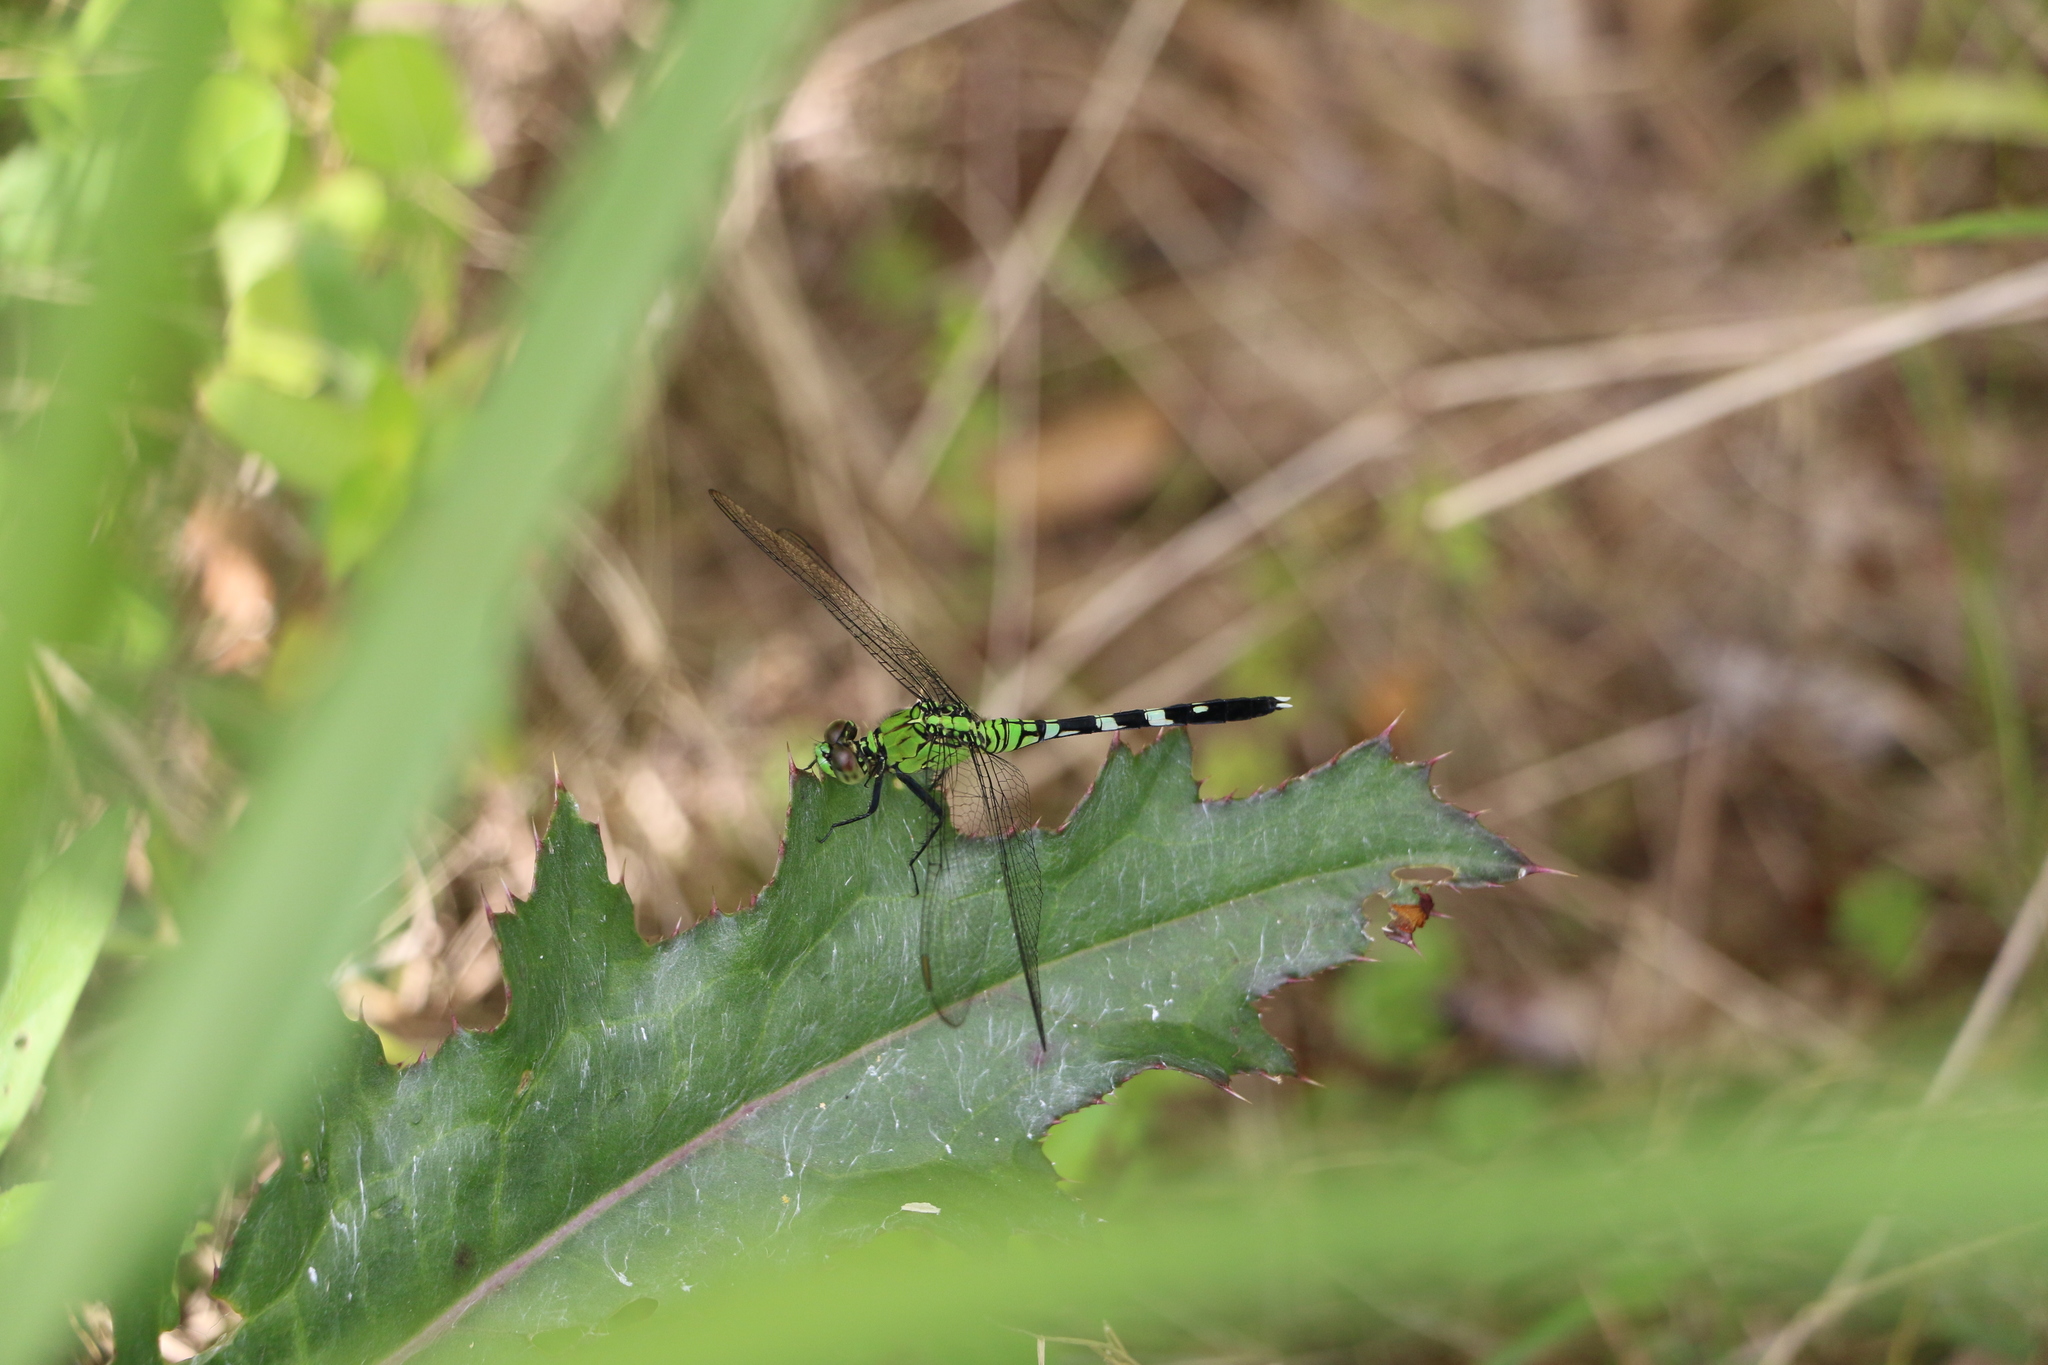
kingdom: Animalia
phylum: Arthropoda
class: Insecta
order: Odonata
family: Libellulidae
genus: Erythemis
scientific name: Erythemis simplicicollis
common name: Eastern pondhawk
